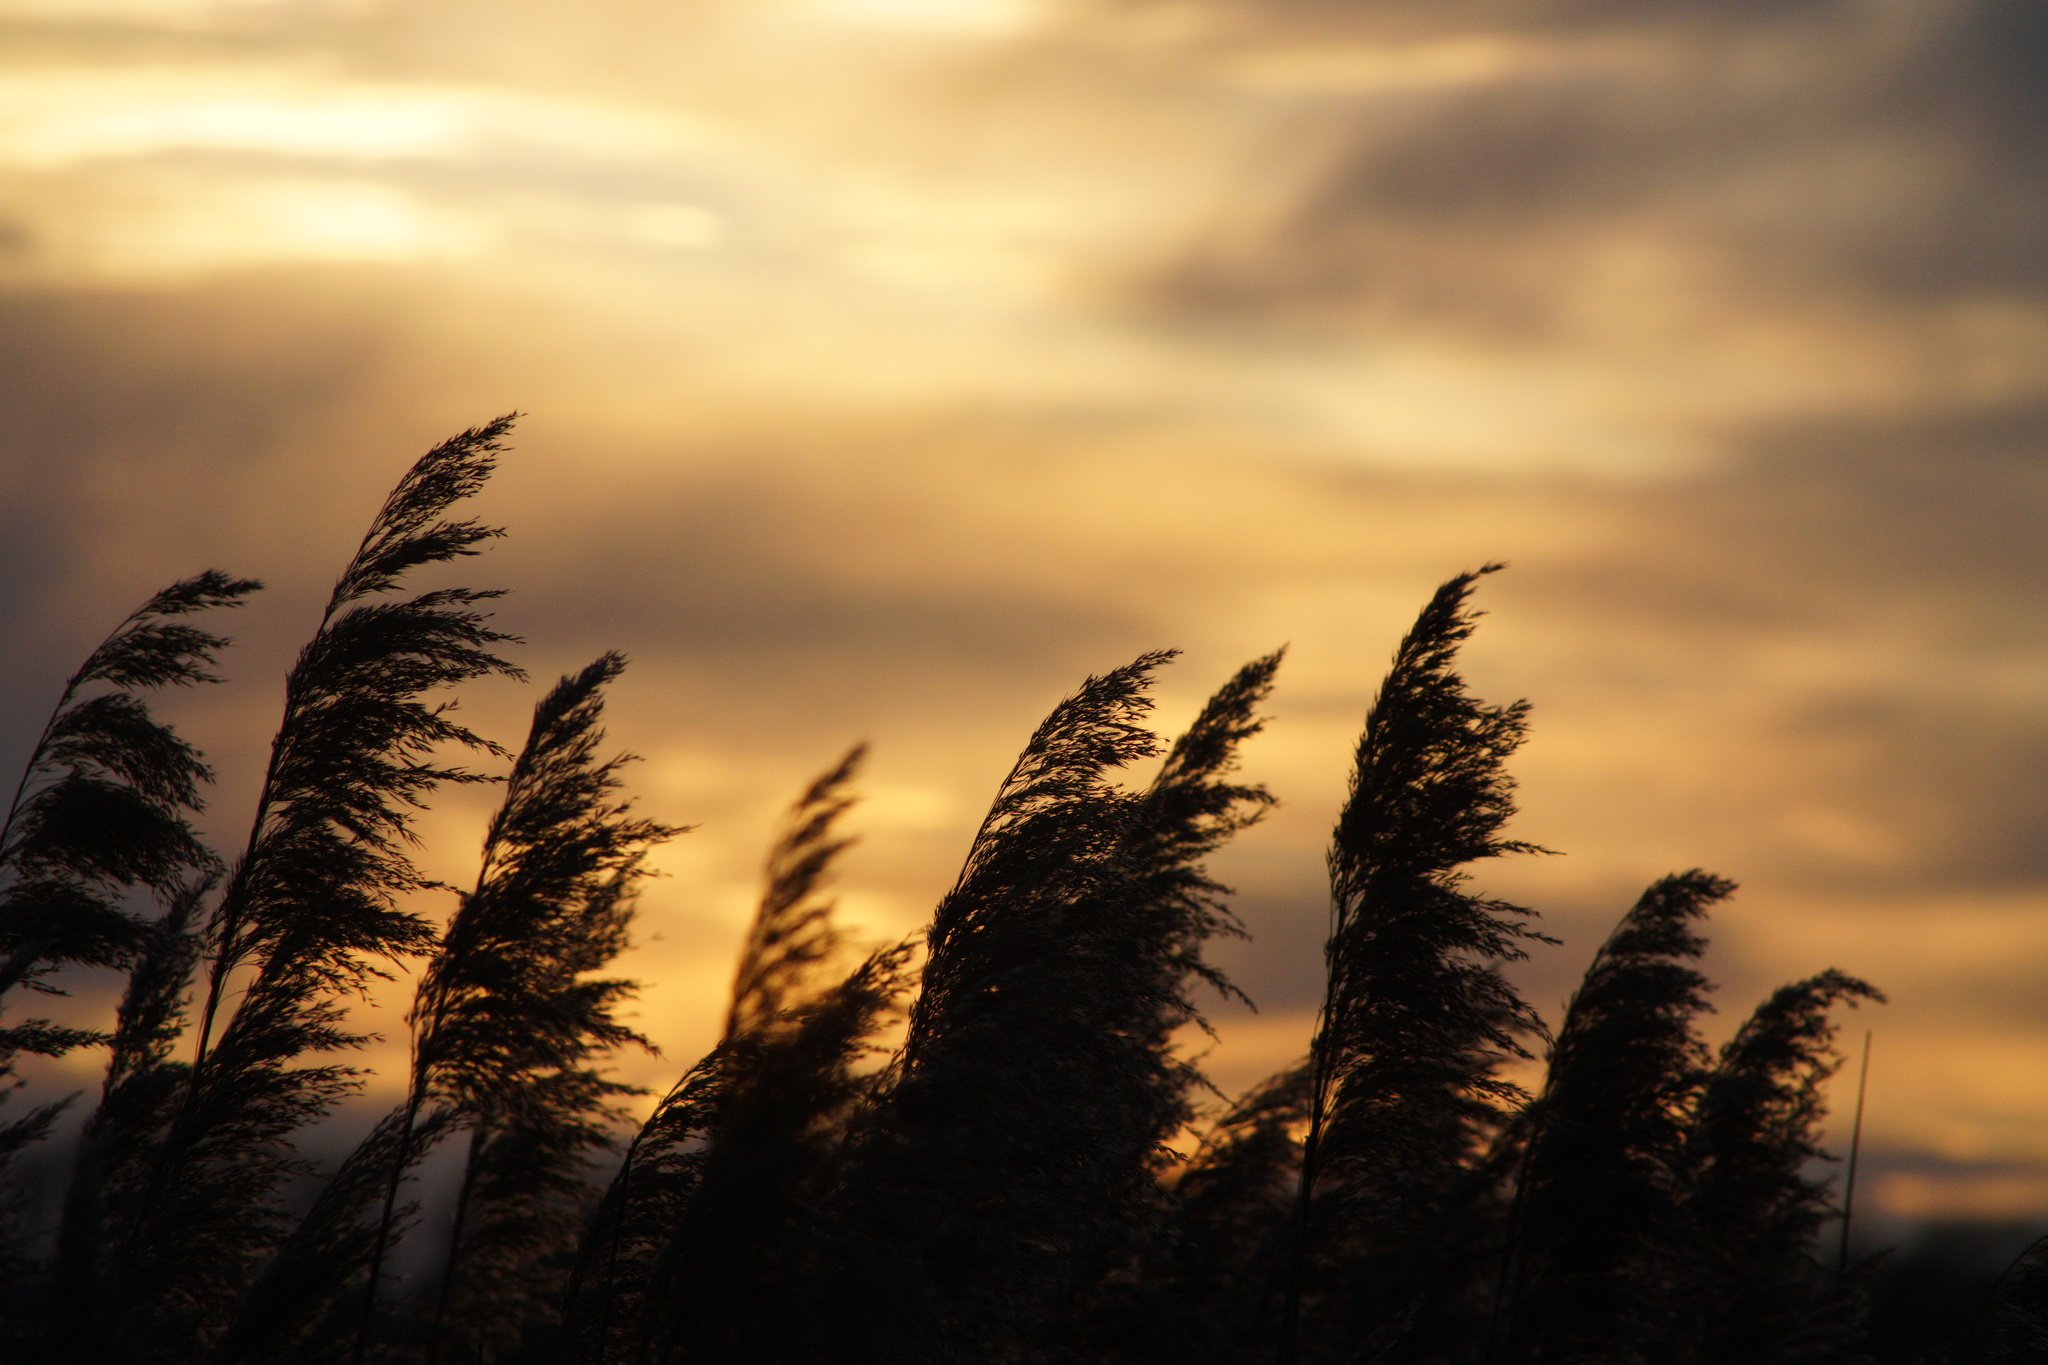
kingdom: Plantae
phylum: Tracheophyta
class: Liliopsida
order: Poales
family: Poaceae
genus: Phragmites
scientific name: Phragmites australis
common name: Common reed
